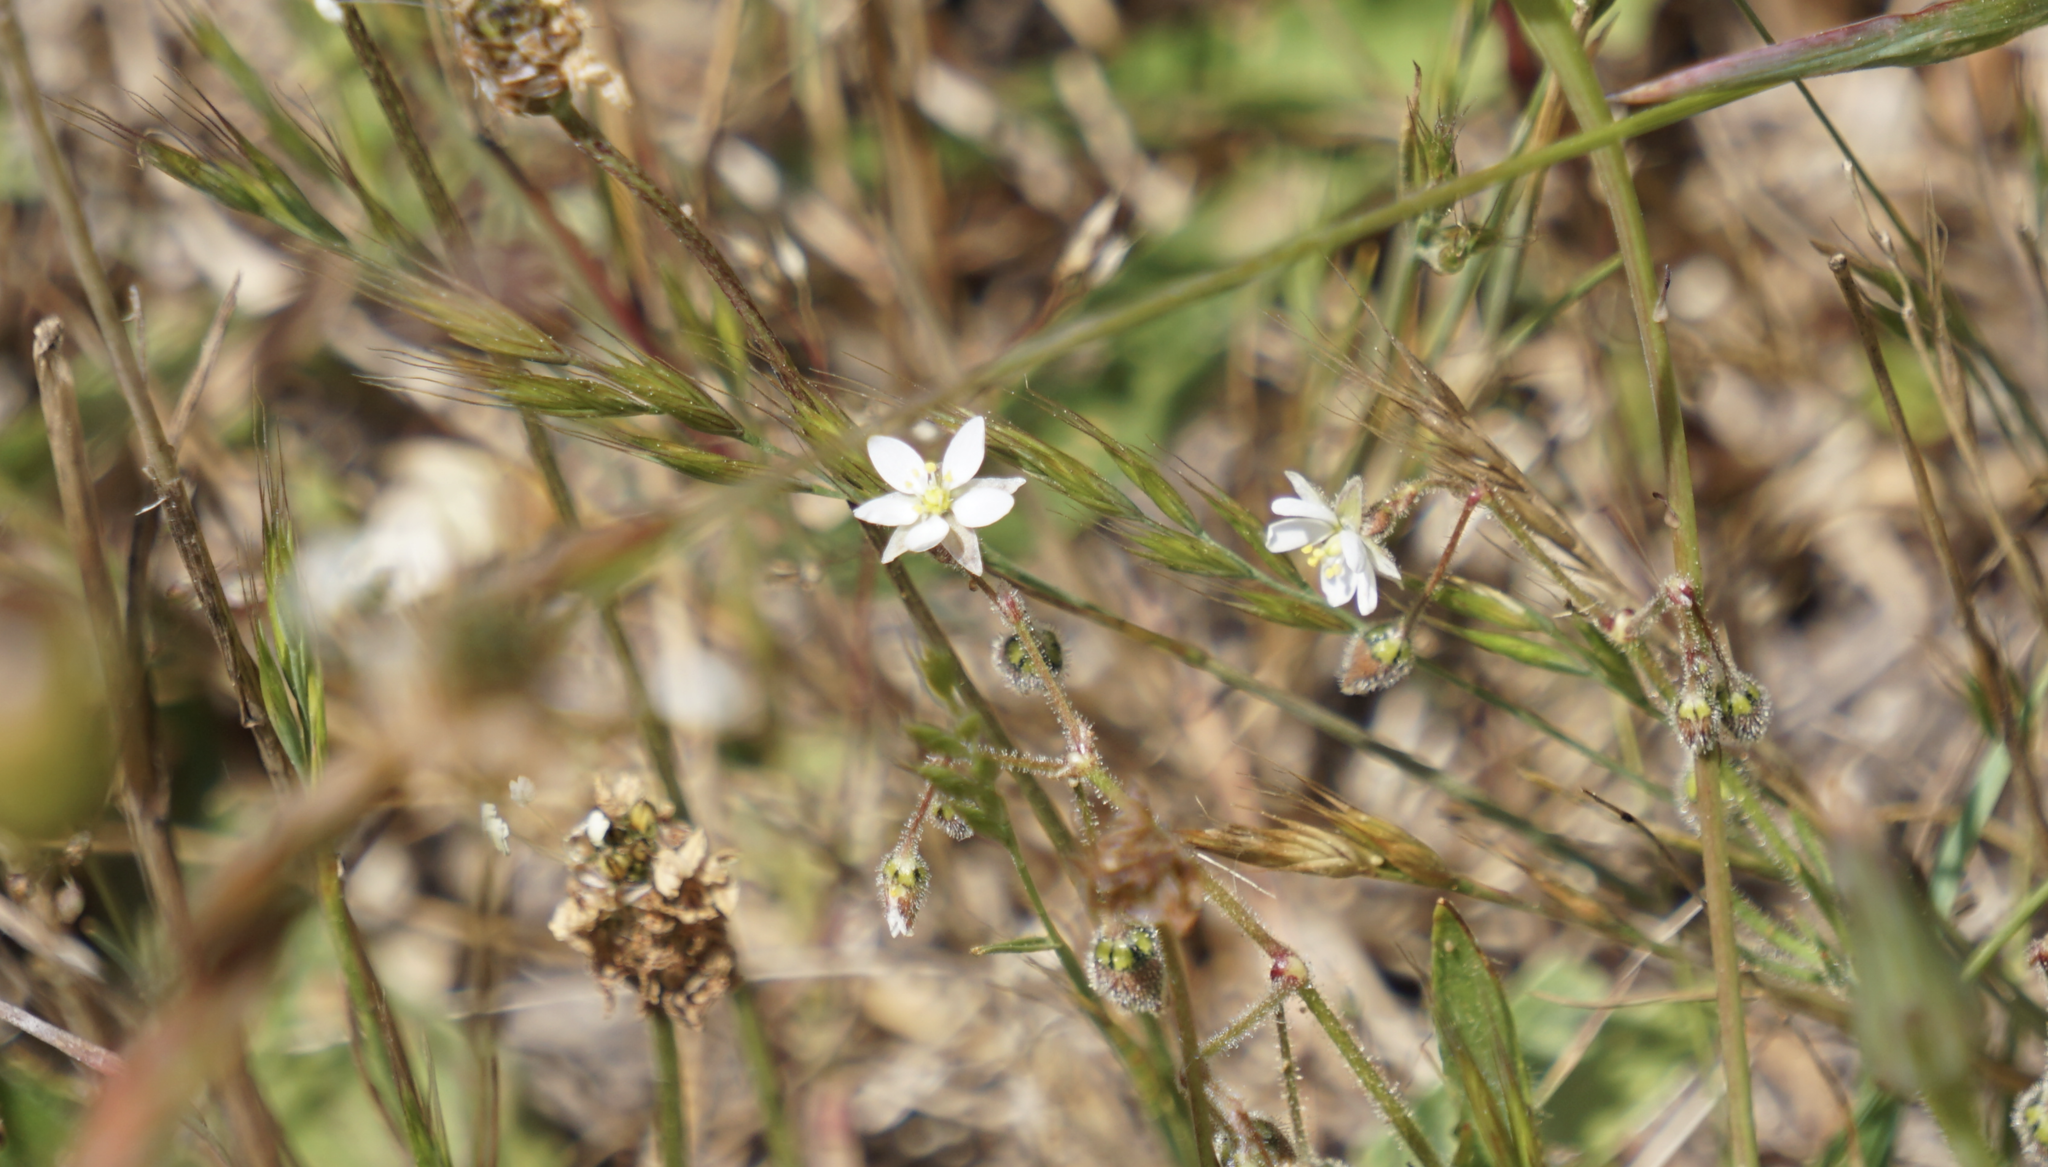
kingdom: Plantae
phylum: Tracheophyta
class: Magnoliopsida
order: Caryophyllales
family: Caryophyllaceae
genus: Spergula
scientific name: Spergula arvensis
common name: Corn spurrey
